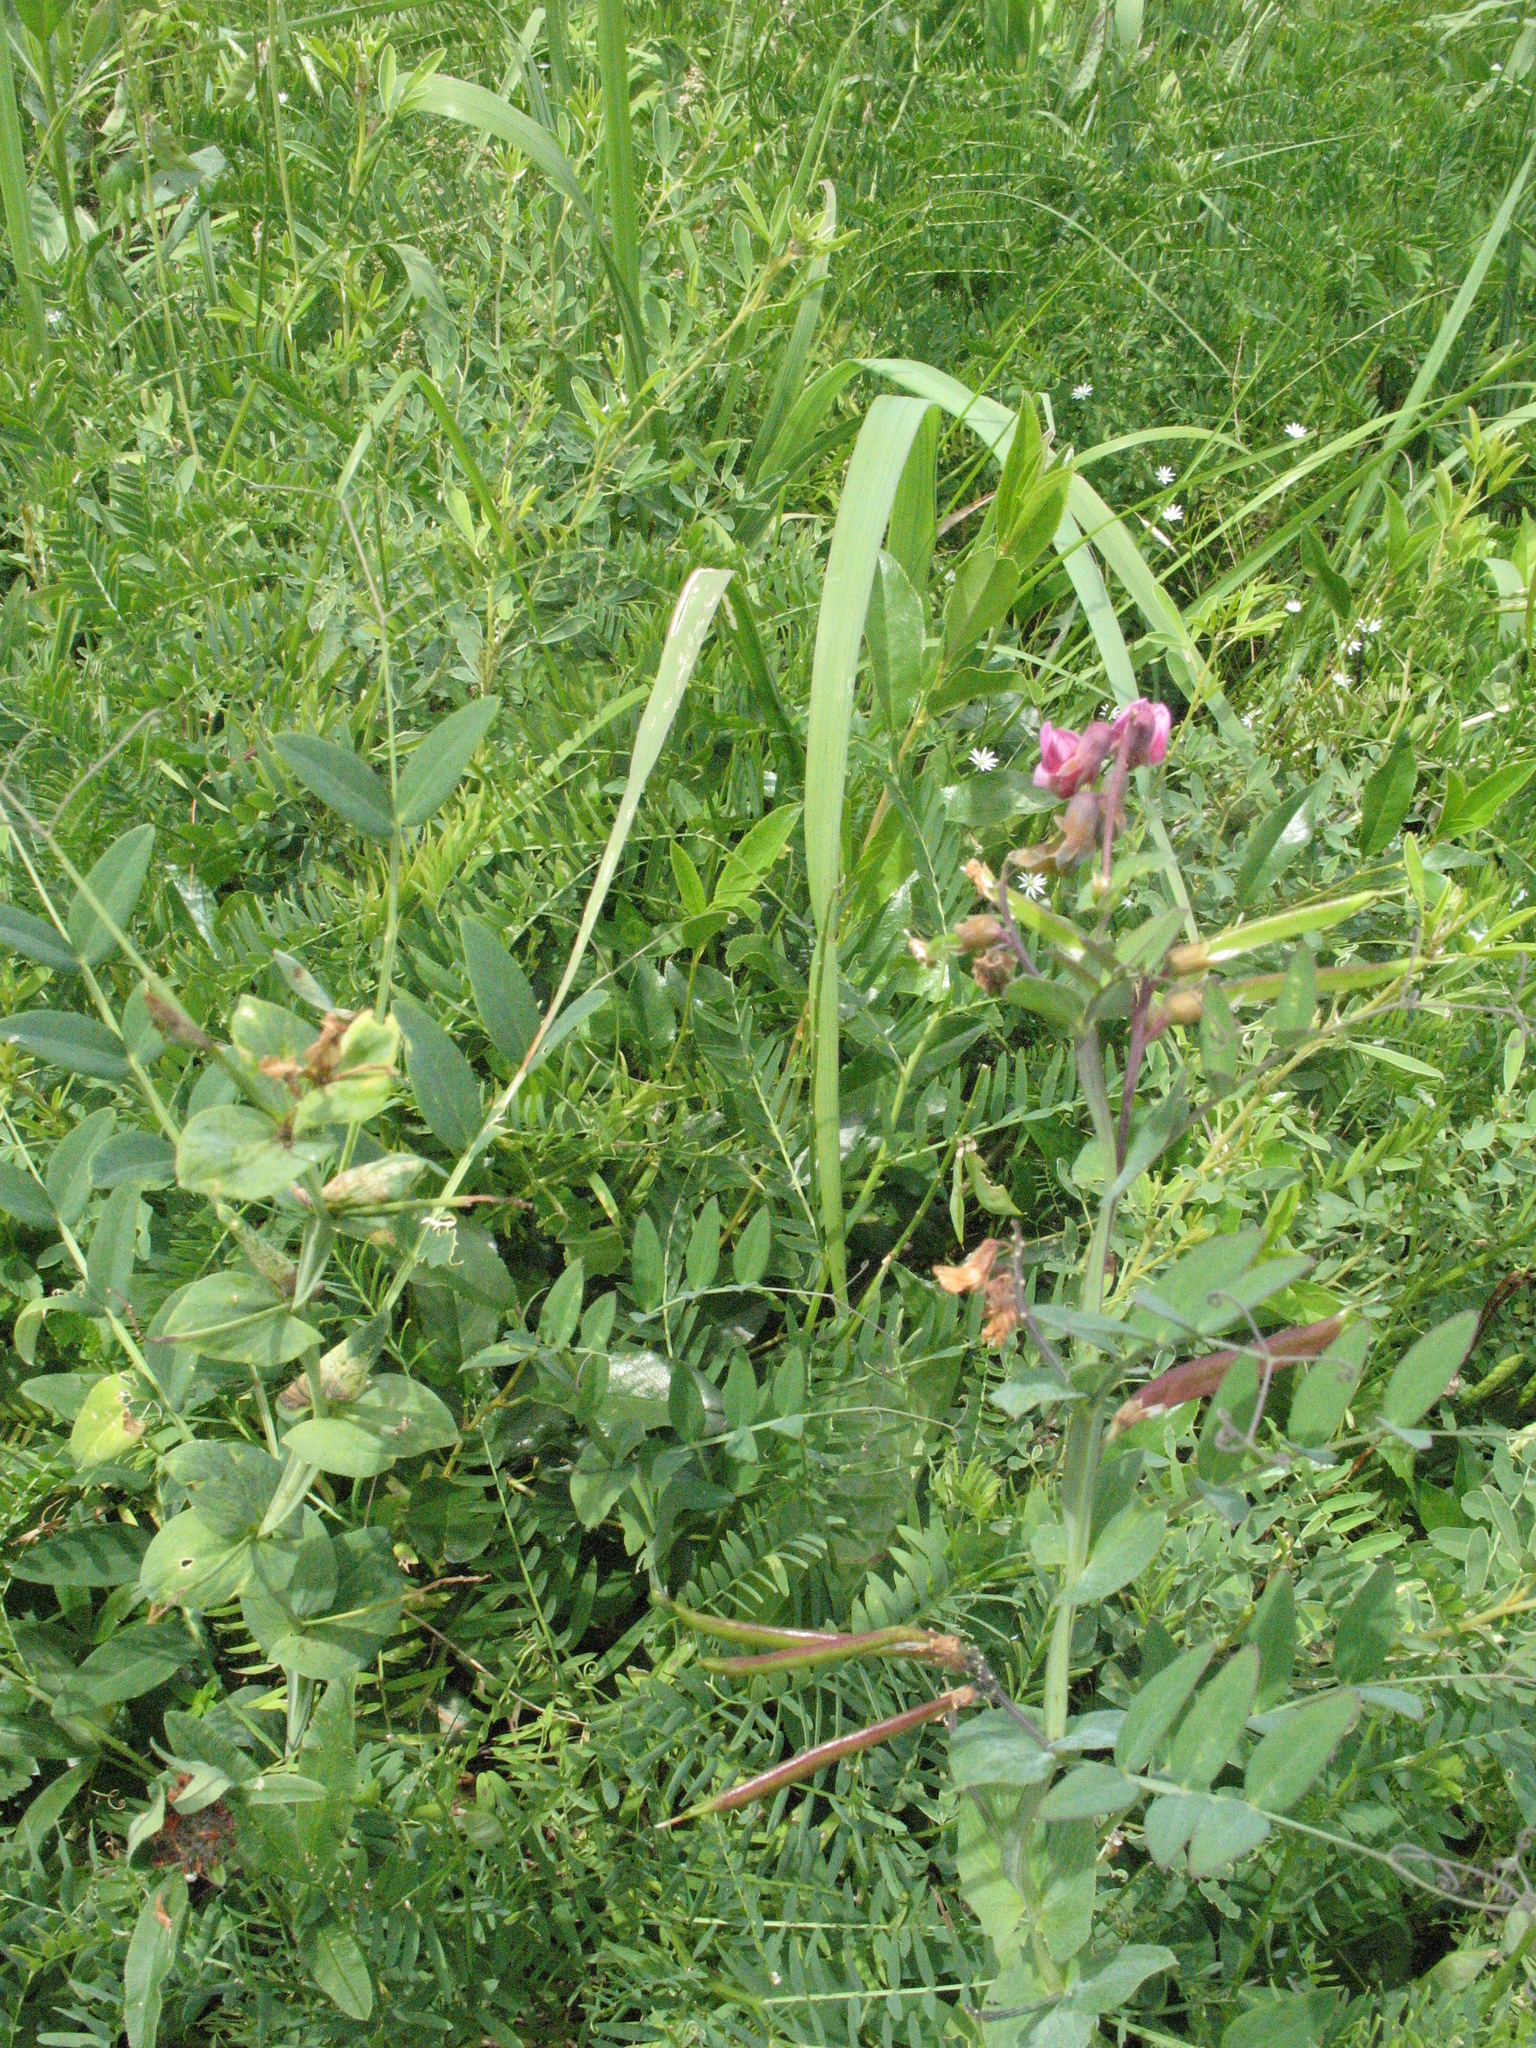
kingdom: Plantae
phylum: Tracheophyta
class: Magnoliopsida
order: Fabales
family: Fabaceae
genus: Lathyrus
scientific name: Lathyrus pisiformis
